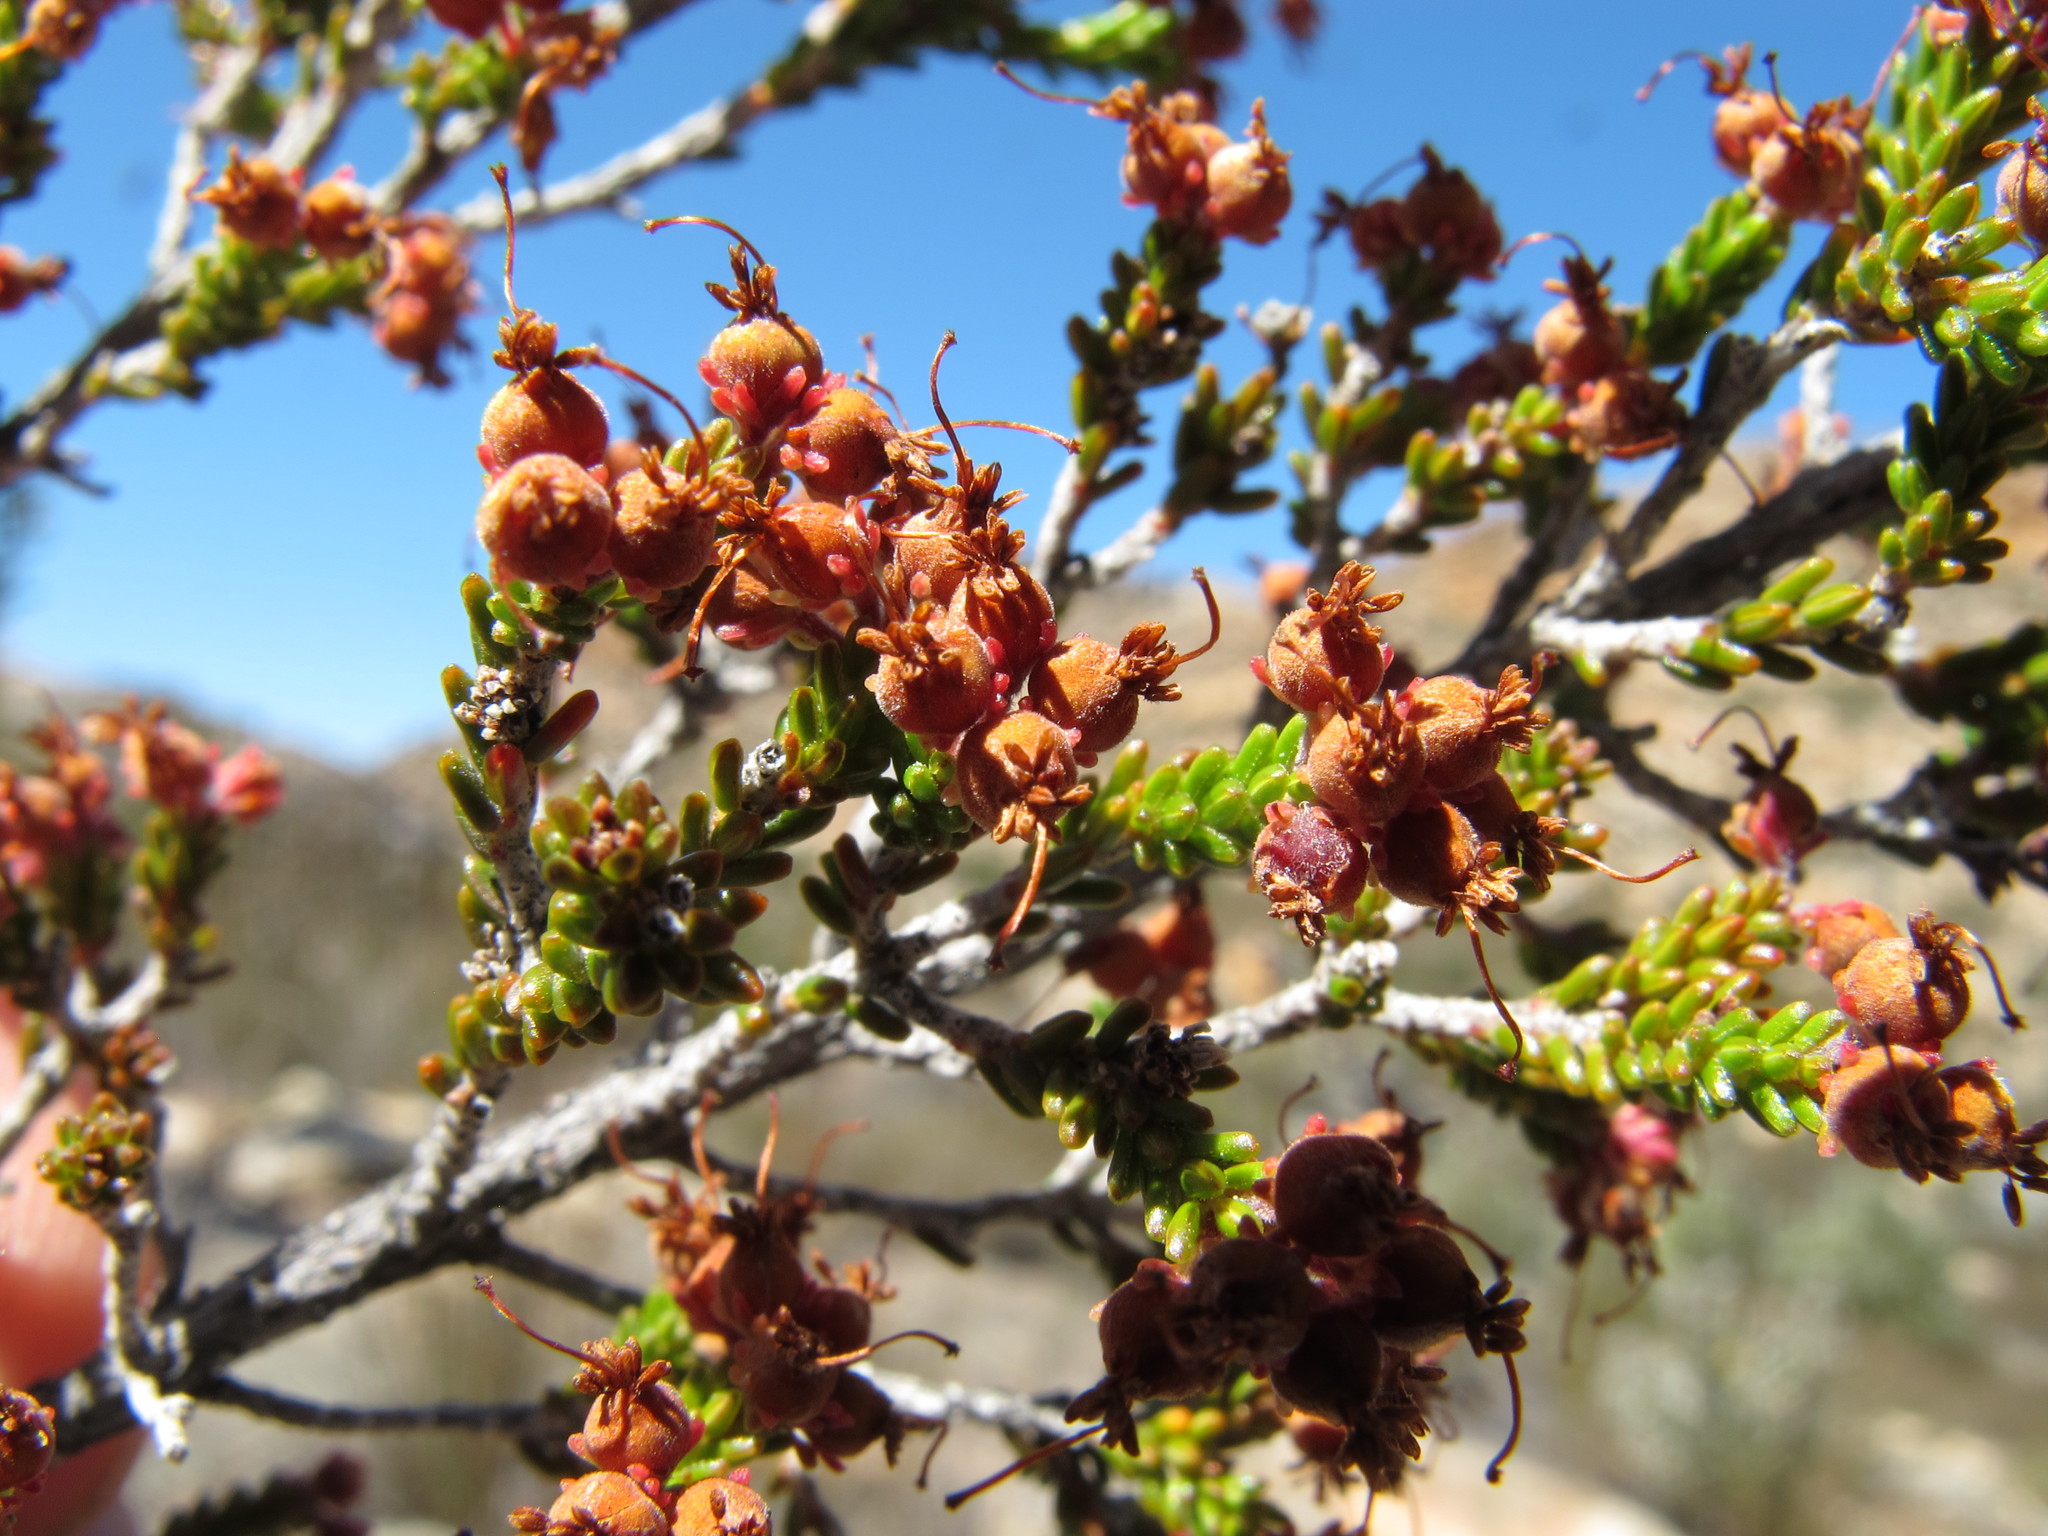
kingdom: Plantae
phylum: Tracheophyta
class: Magnoliopsida
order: Ericales
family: Ericaceae
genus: Erica
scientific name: Erica arcuata
